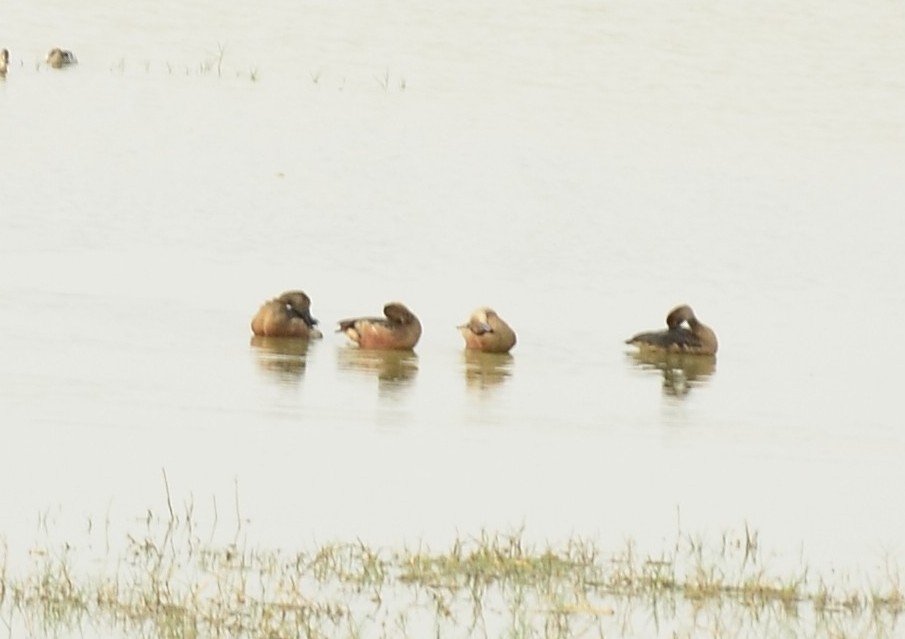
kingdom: Animalia
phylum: Chordata
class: Aves
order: Anseriformes
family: Anatidae
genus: Dendrocygna
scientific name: Dendrocygna javanica
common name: Lesser whistling-duck
